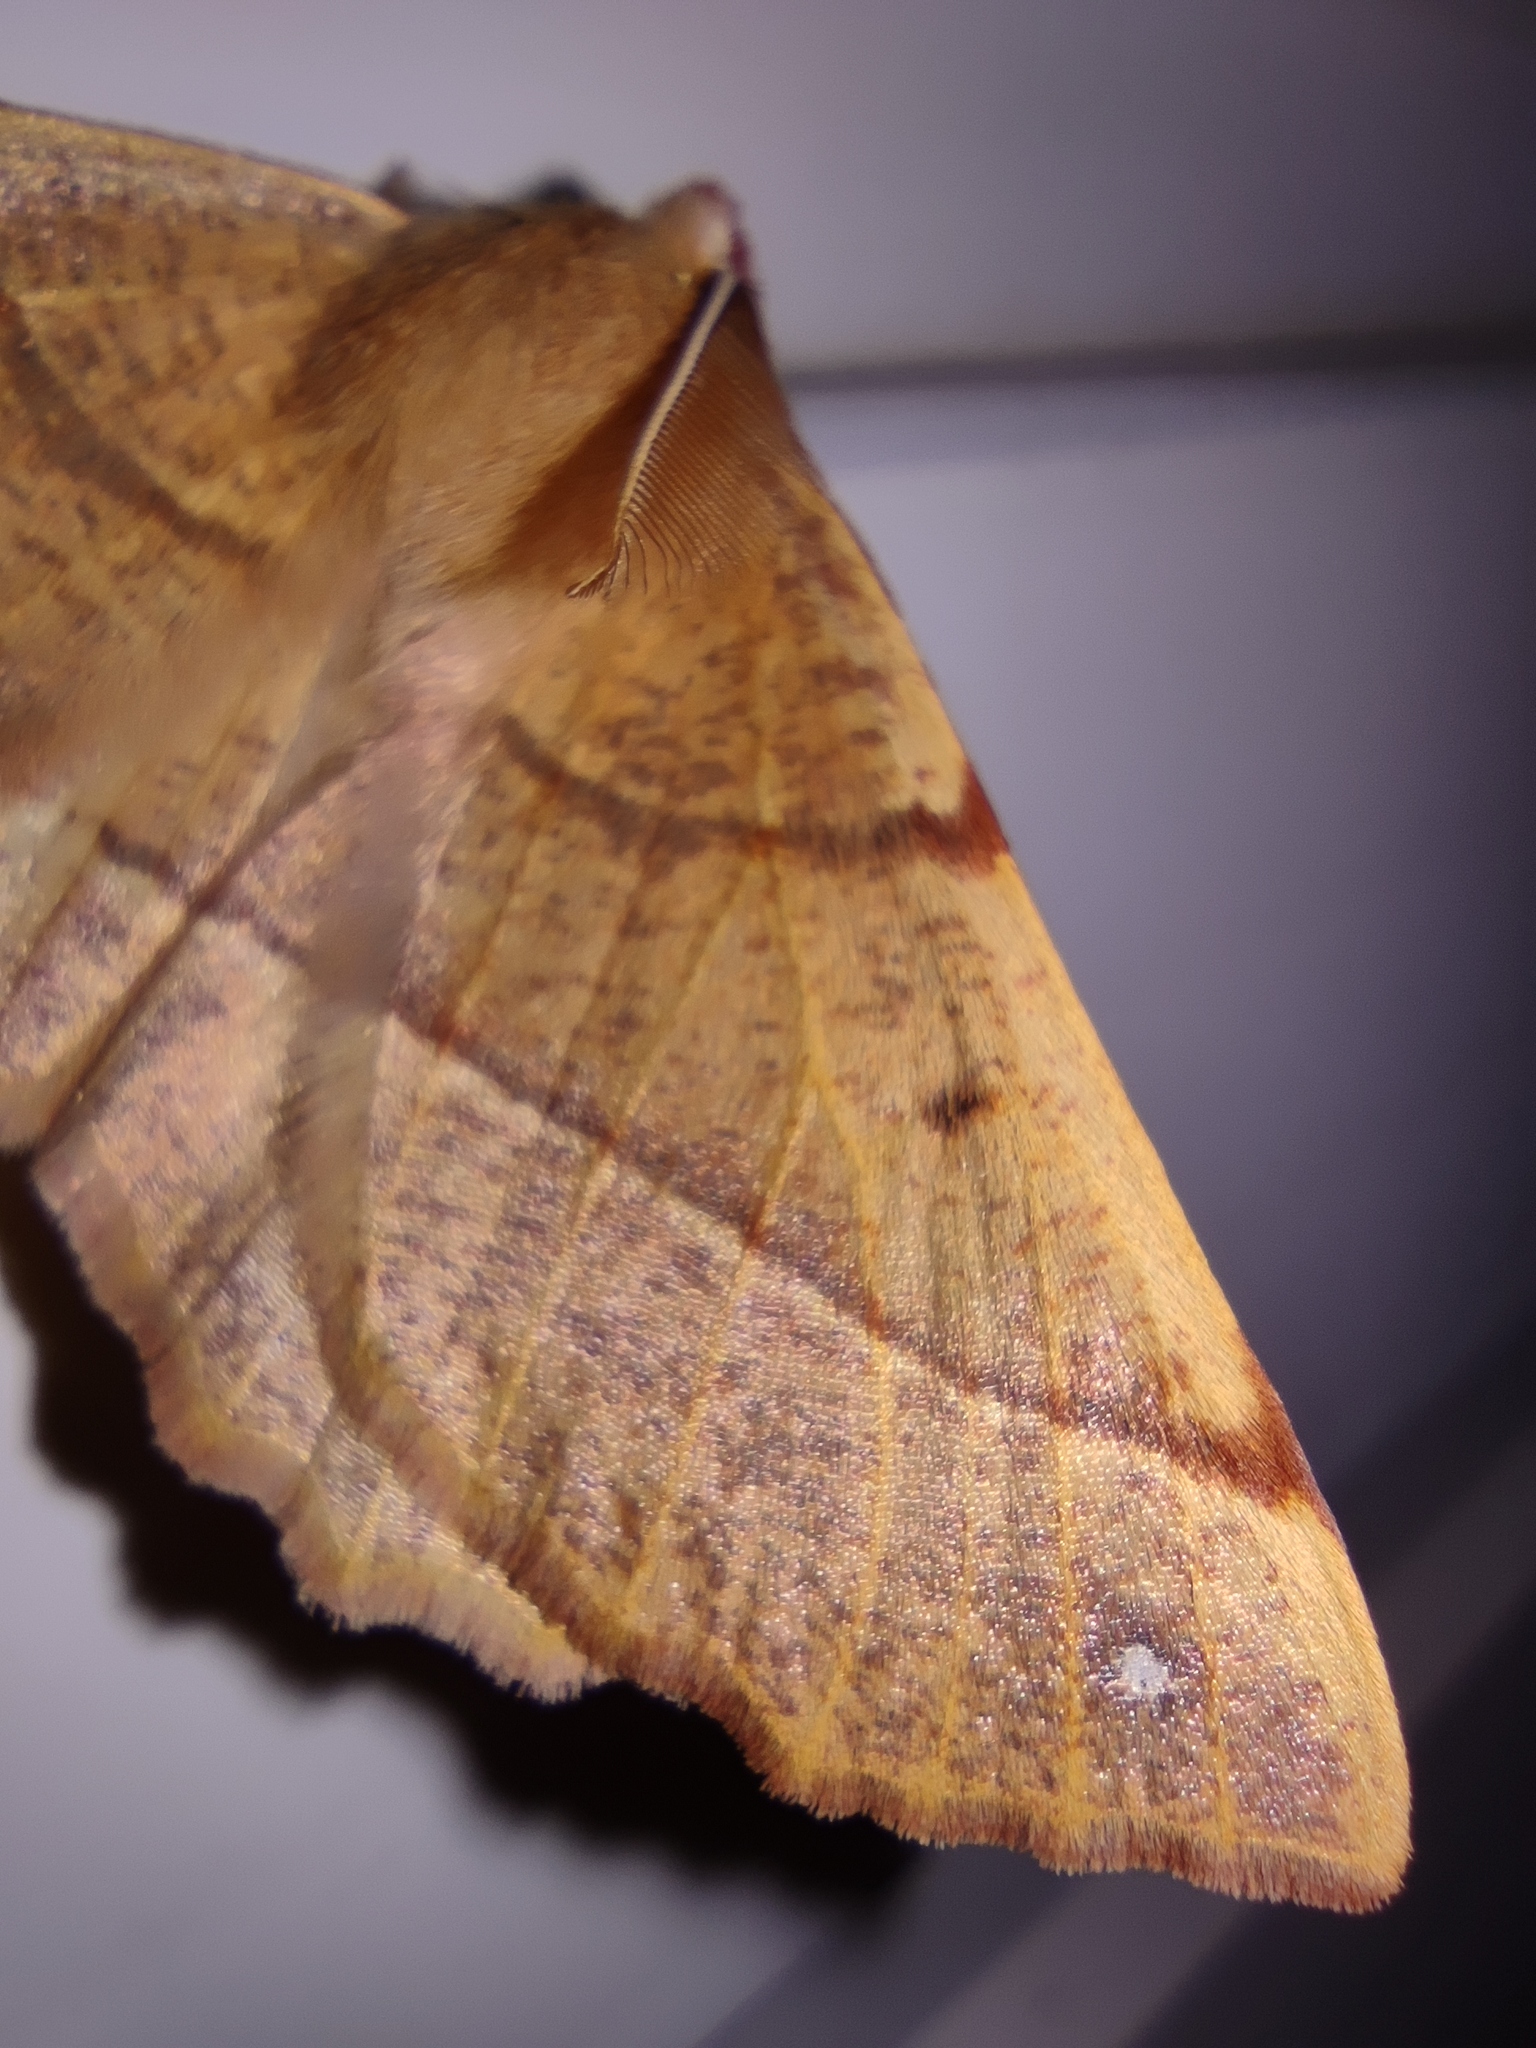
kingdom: Animalia
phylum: Arthropoda
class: Insecta
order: Lepidoptera
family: Geometridae
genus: Colotois
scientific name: Colotois pennaria
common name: Feathered thorn
